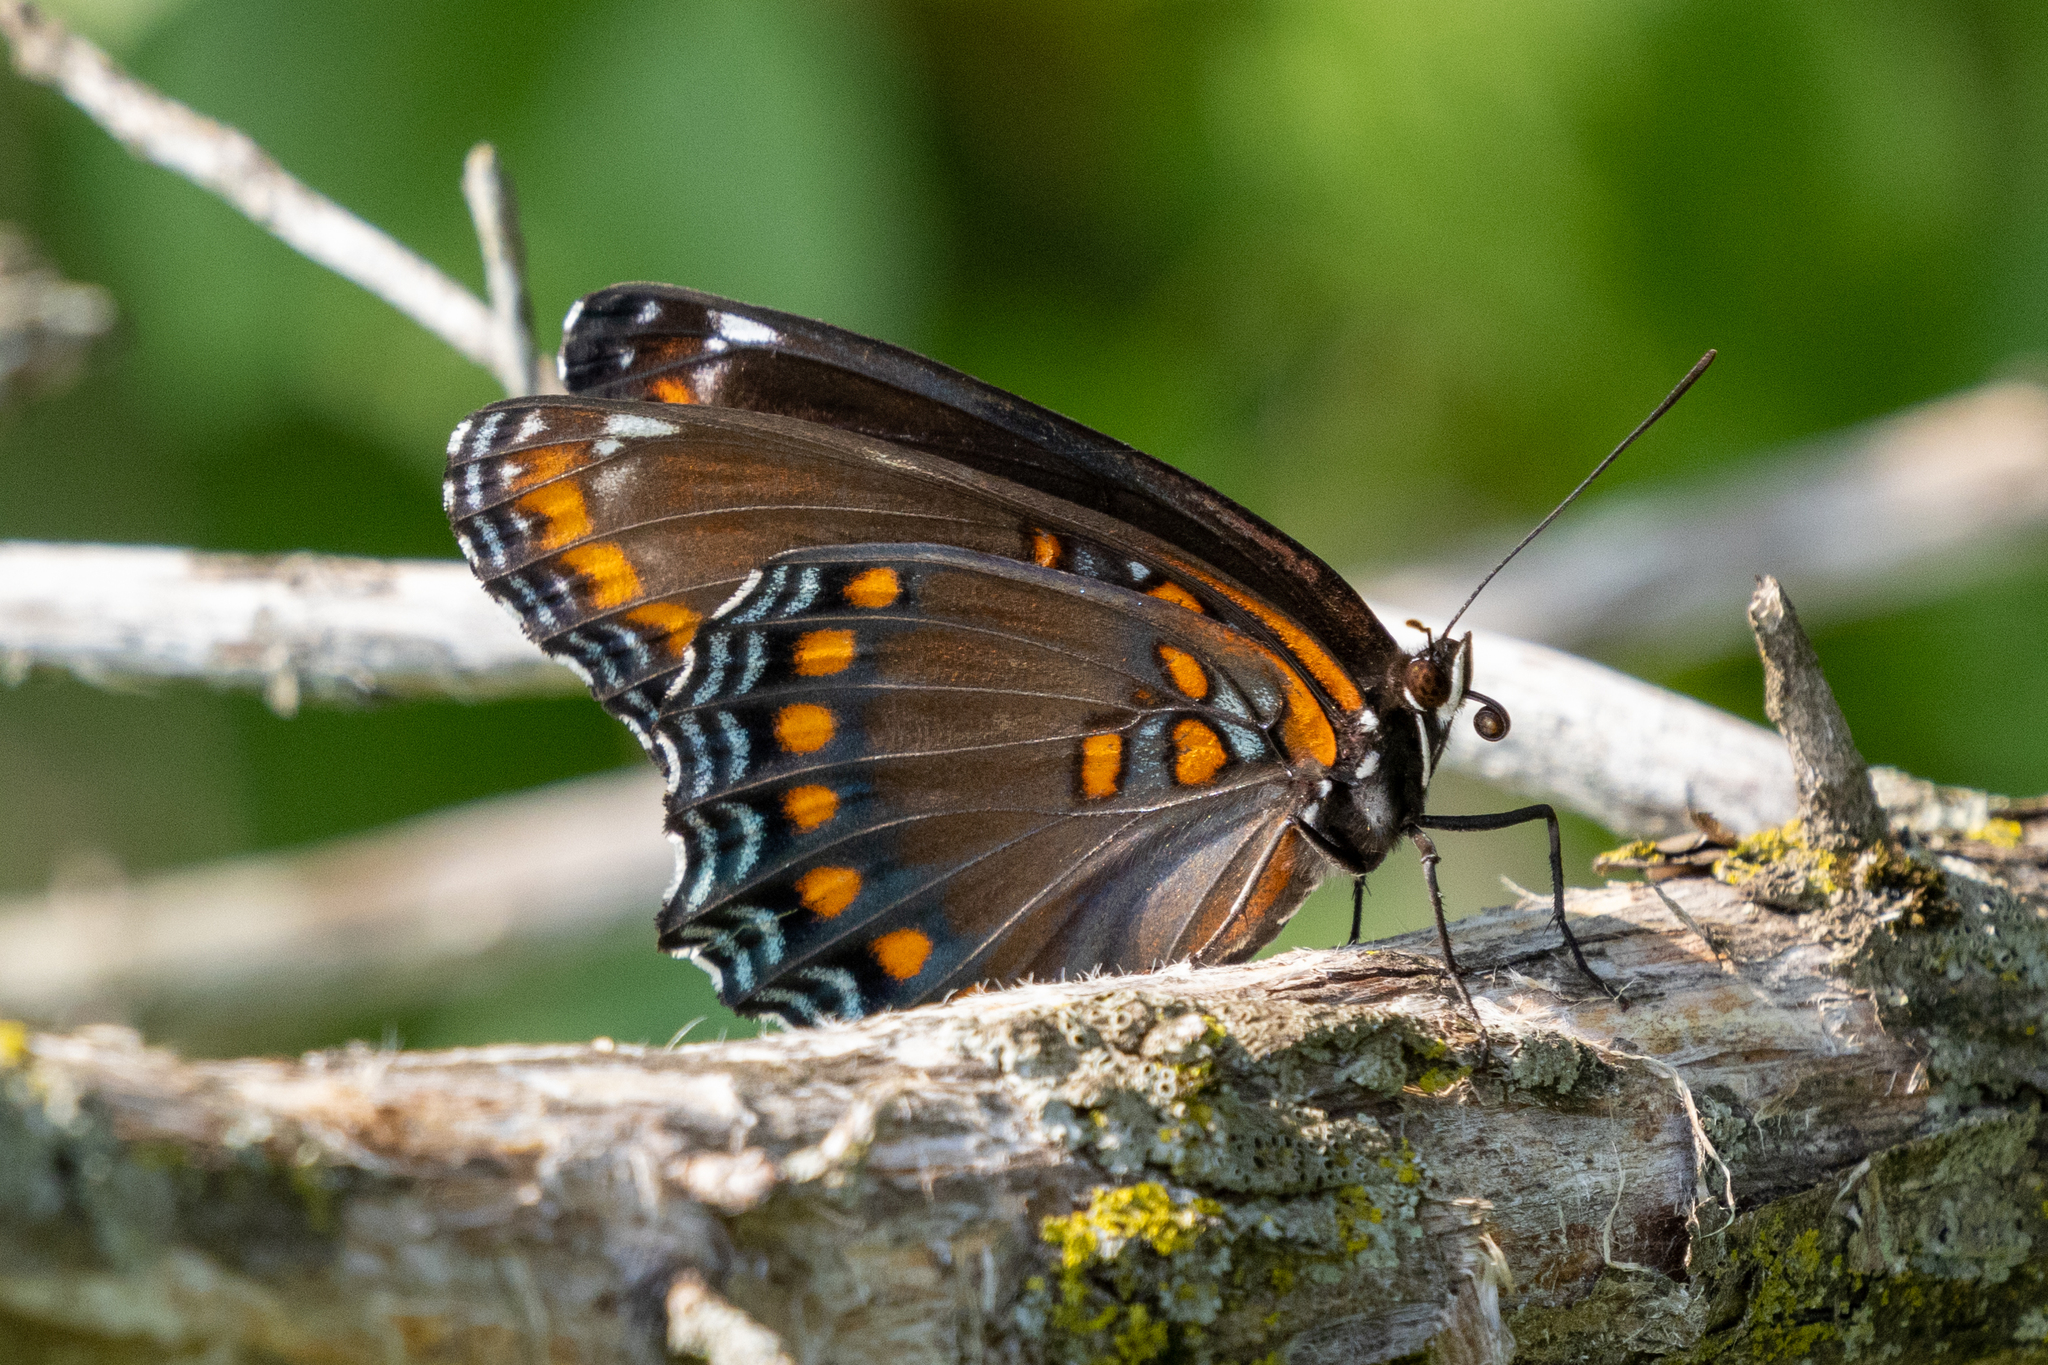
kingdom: Animalia
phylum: Arthropoda
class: Insecta
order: Lepidoptera
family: Nymphalidae
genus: Limenitis
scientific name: Limenitis arthemis
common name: Red-spotted admiral
